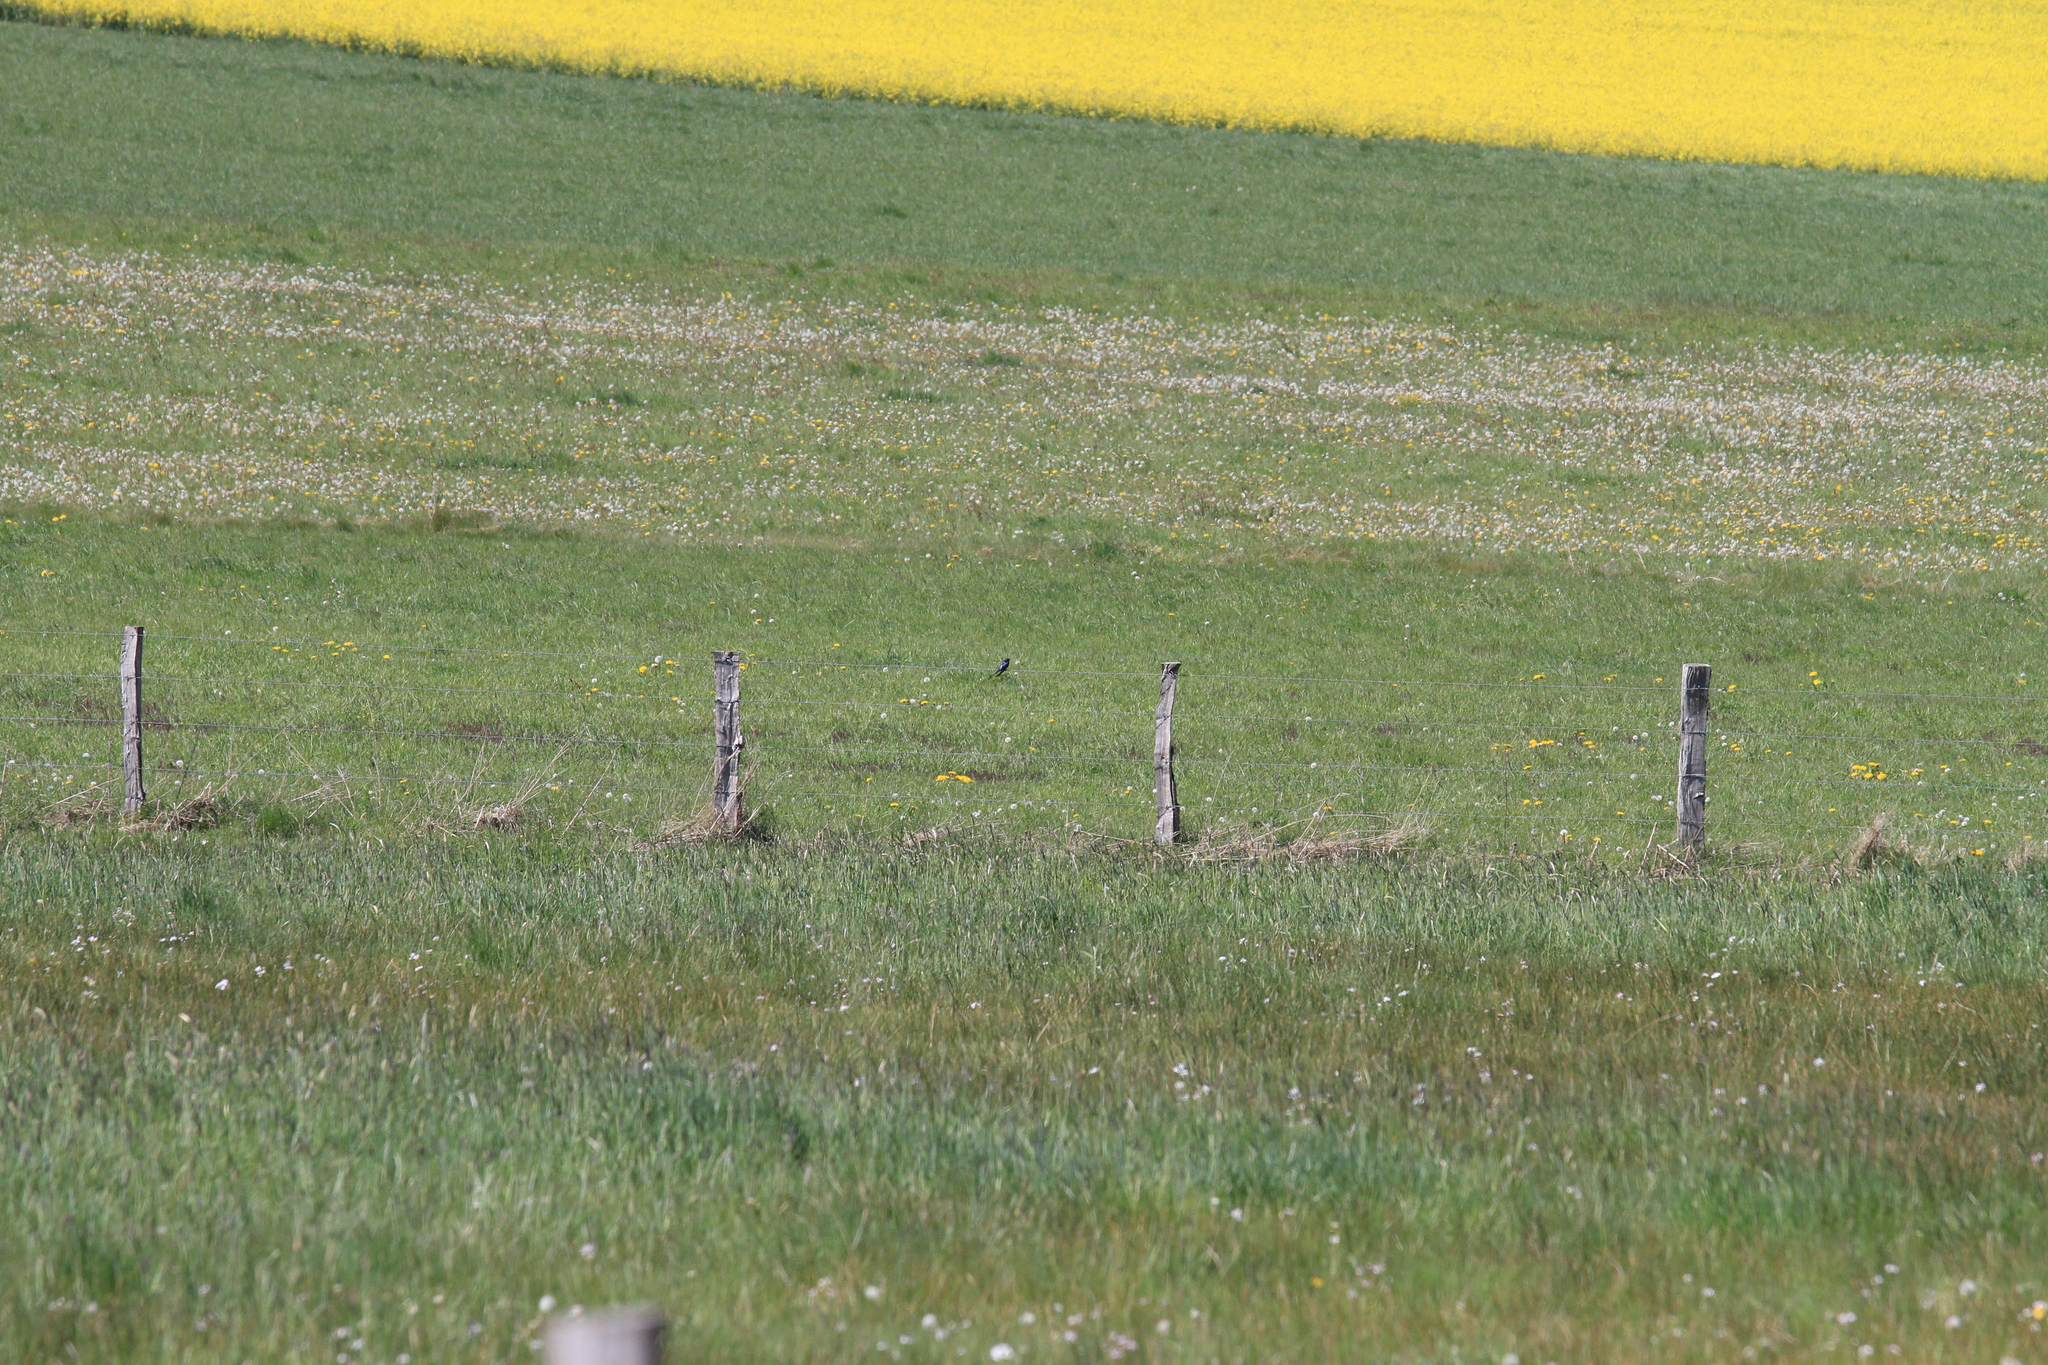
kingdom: Animalia
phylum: Chordata
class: Aves
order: Passeriformes
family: Hirundinidae
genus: Hirundo
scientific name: Hirundo rustica
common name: Barn swallow
